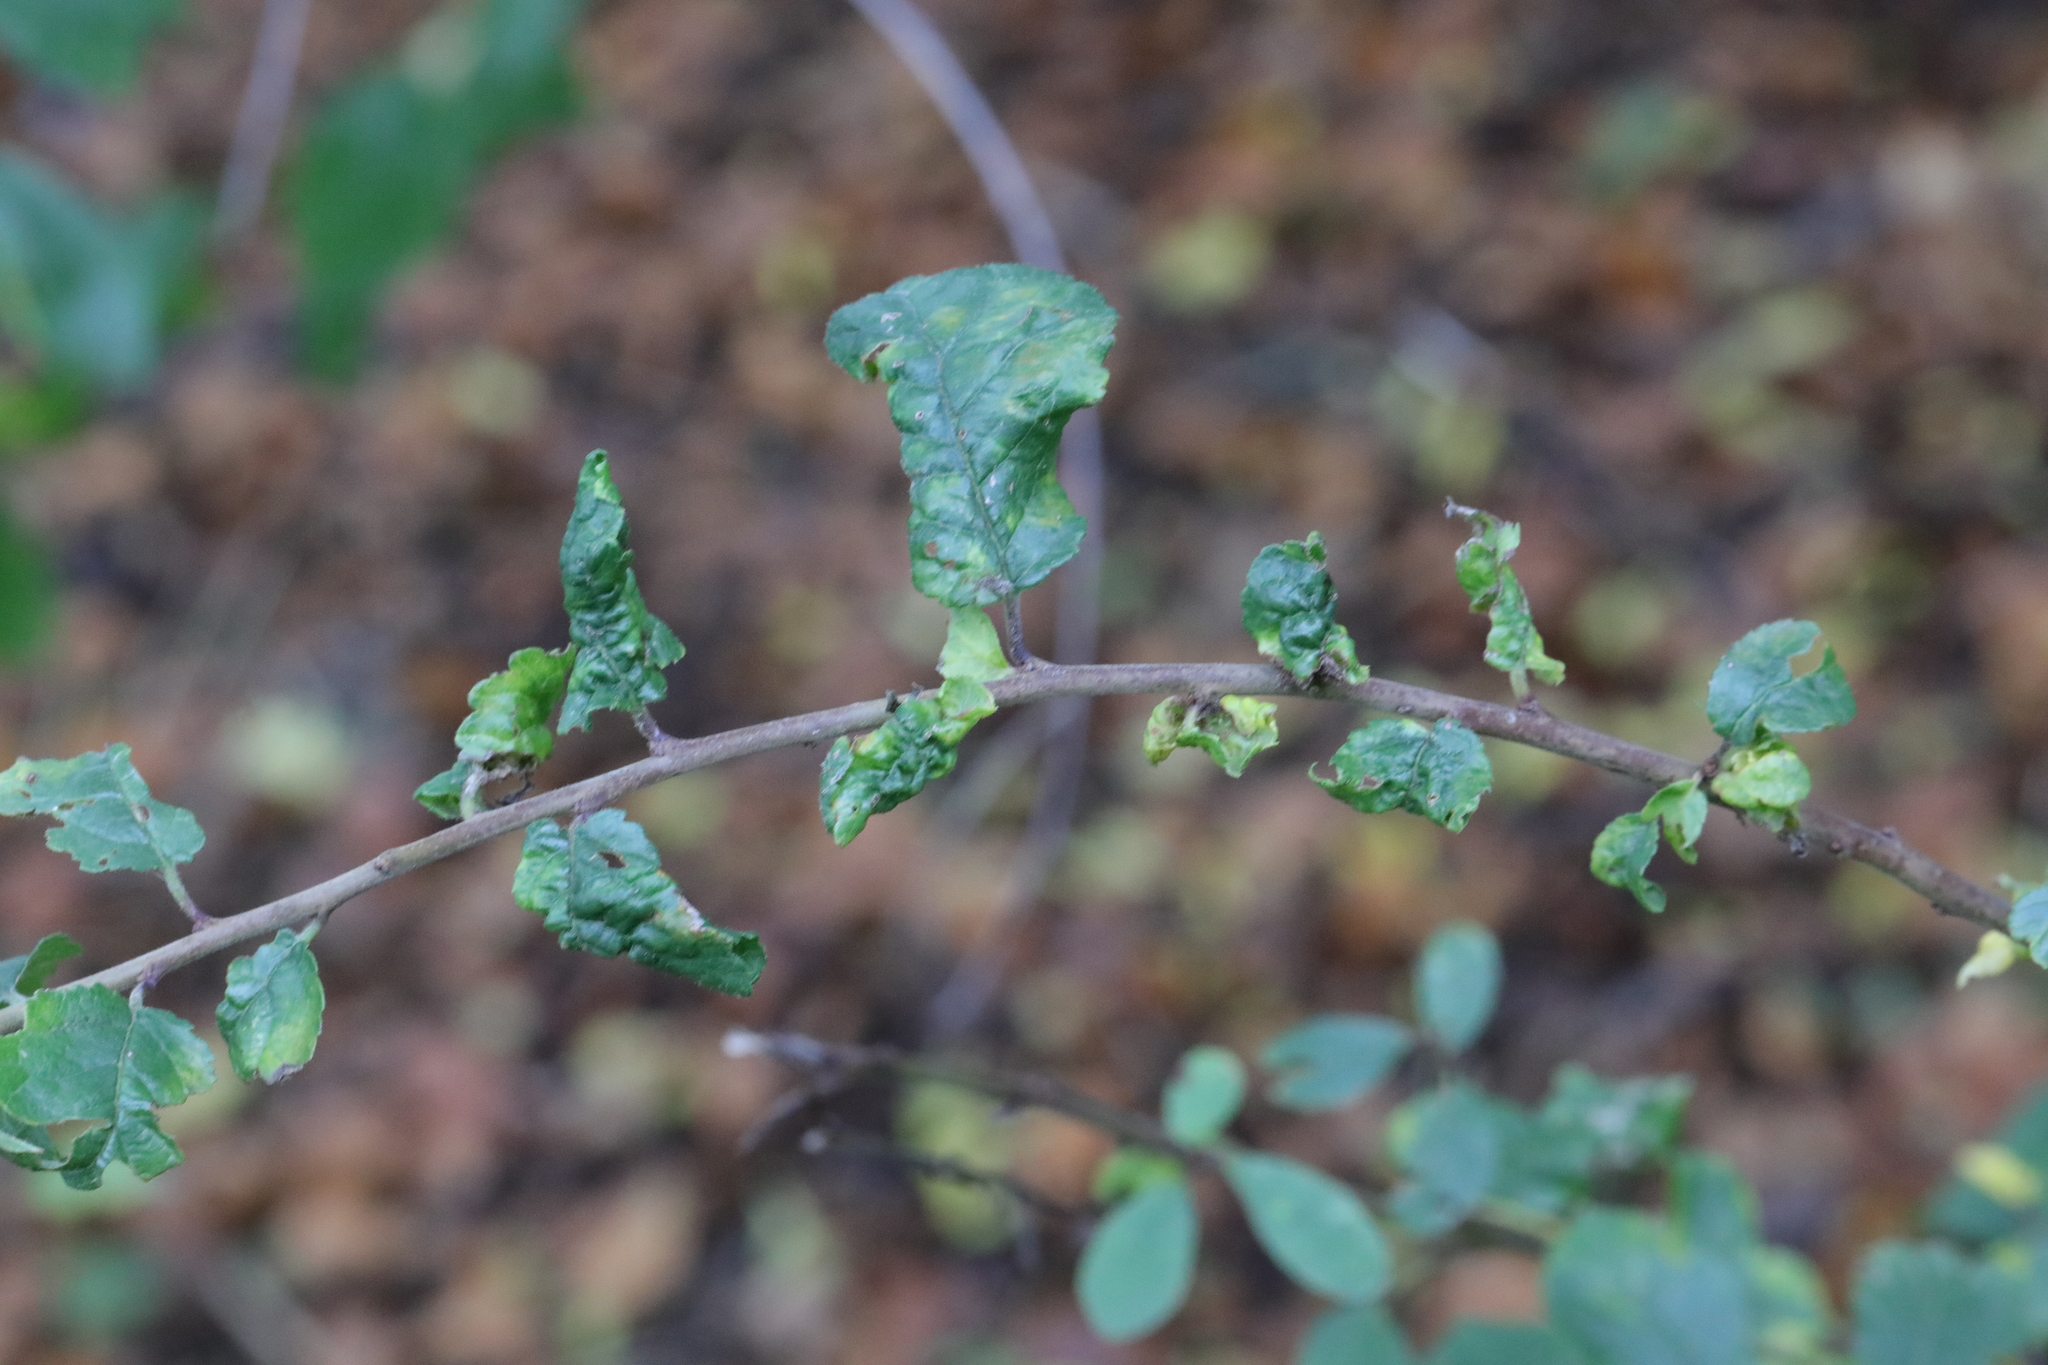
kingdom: Animalia
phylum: Arthropoda
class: Insecta
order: Hemiptera
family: Aphididae
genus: Hyalopterus
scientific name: Hyalopterus pruni
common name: Mealy plum aphid
